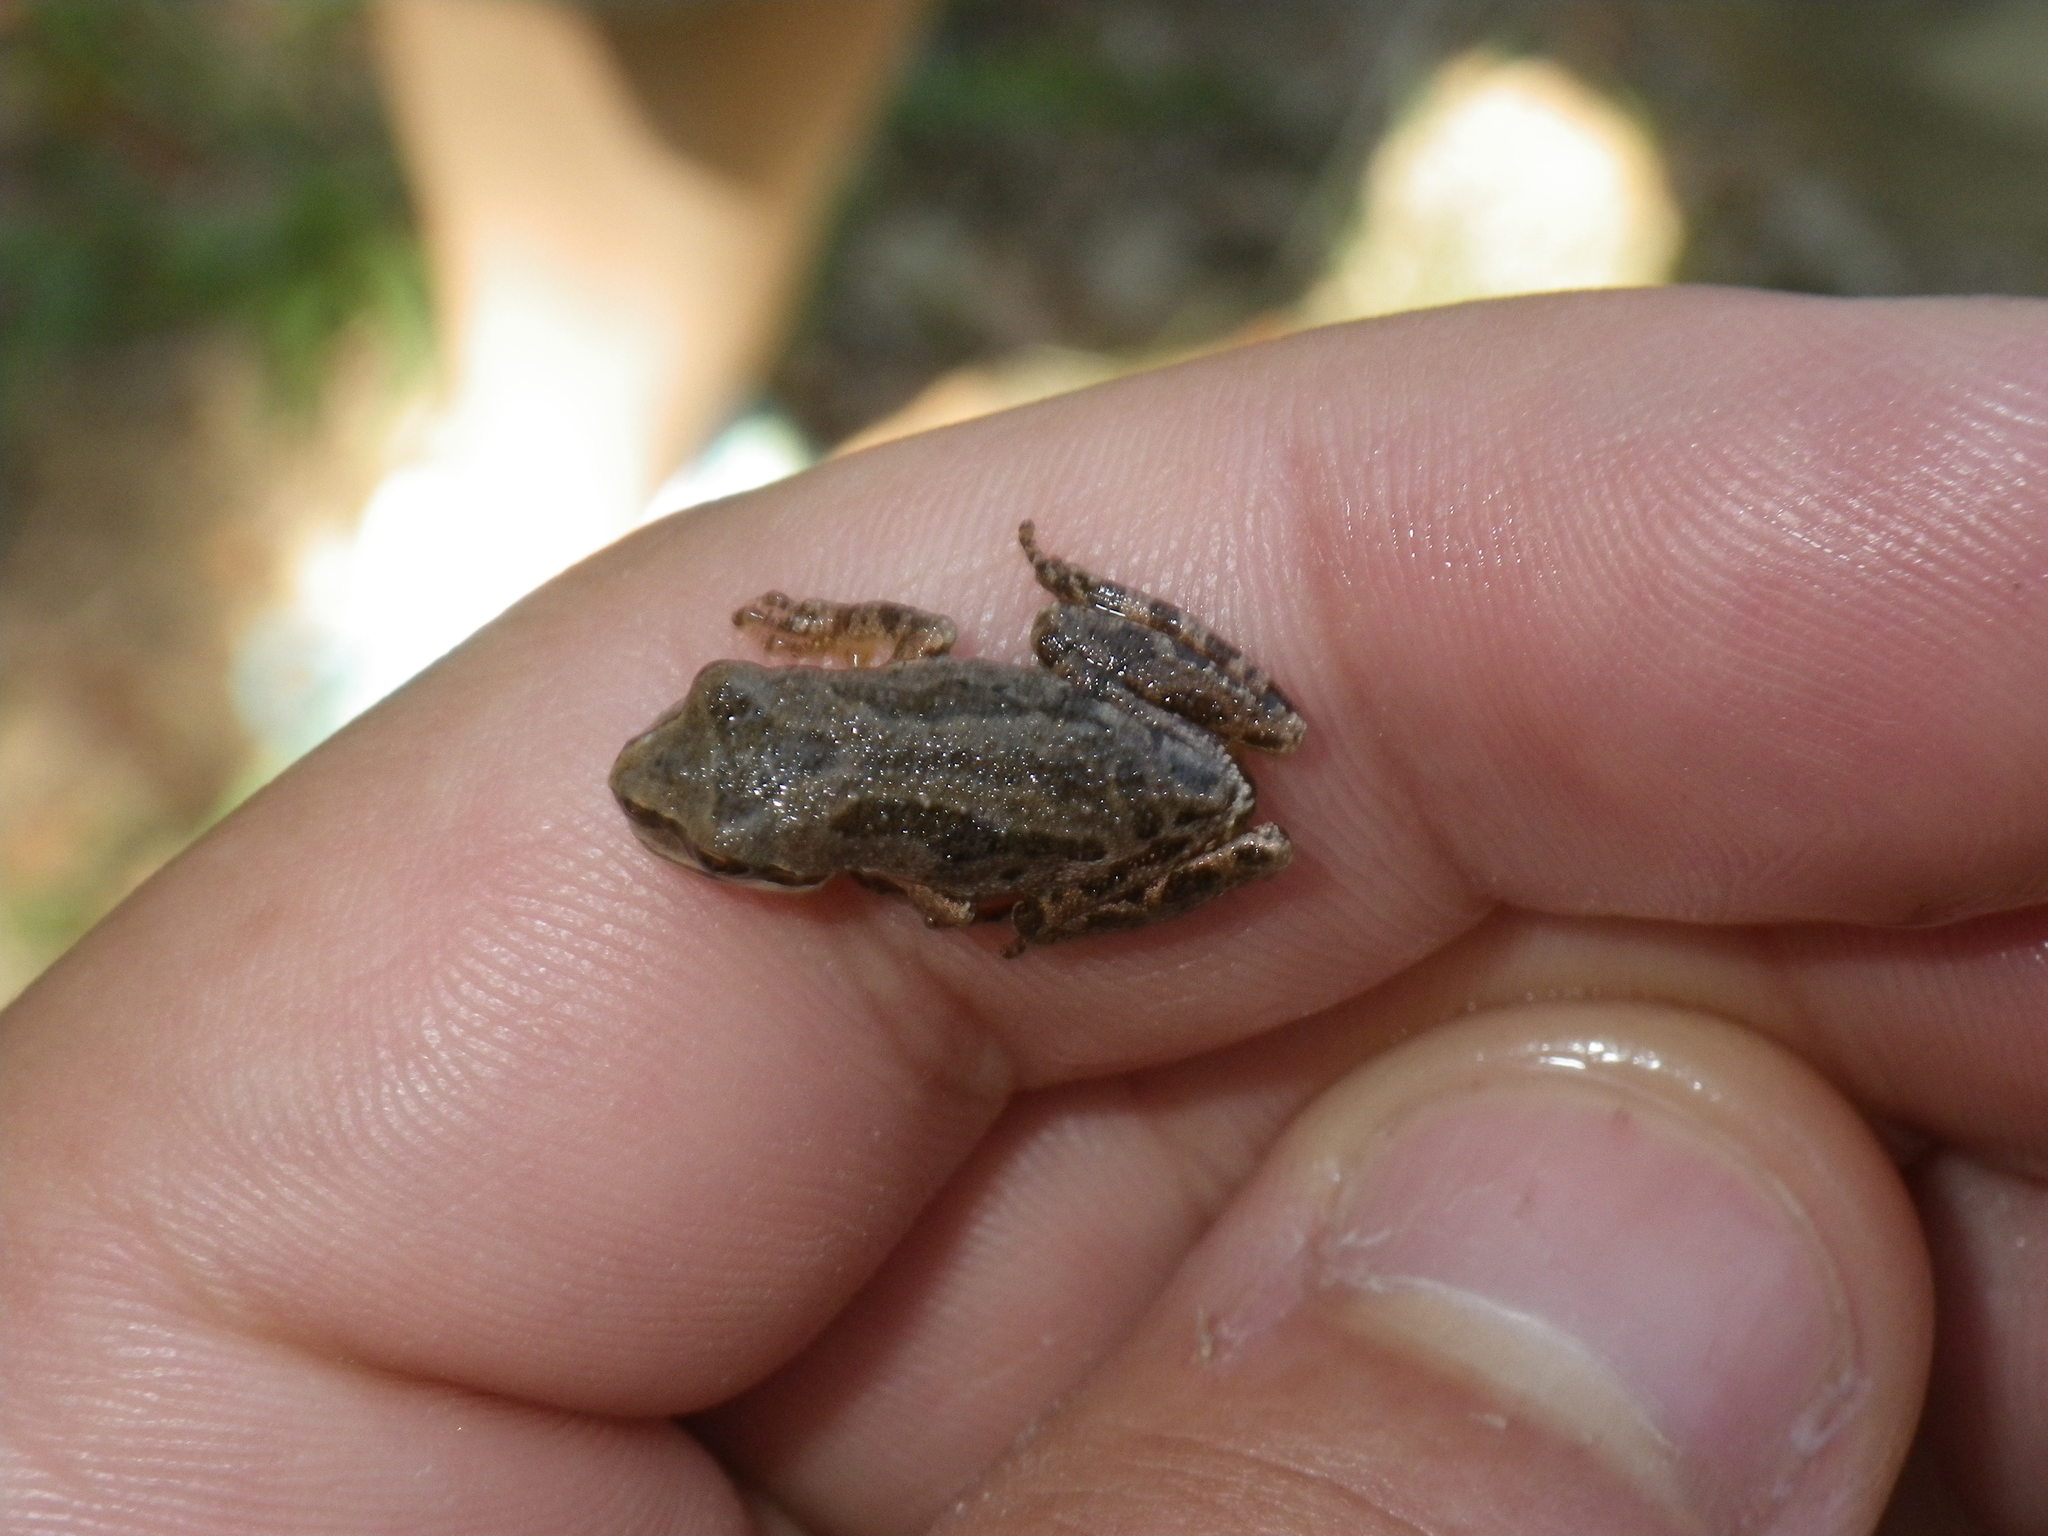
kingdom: Animalia
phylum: Chordata
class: Amphibia
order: Anura
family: Hylidae
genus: Pseudacris
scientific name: Pseudacris regilla
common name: Pacific chorus frog
